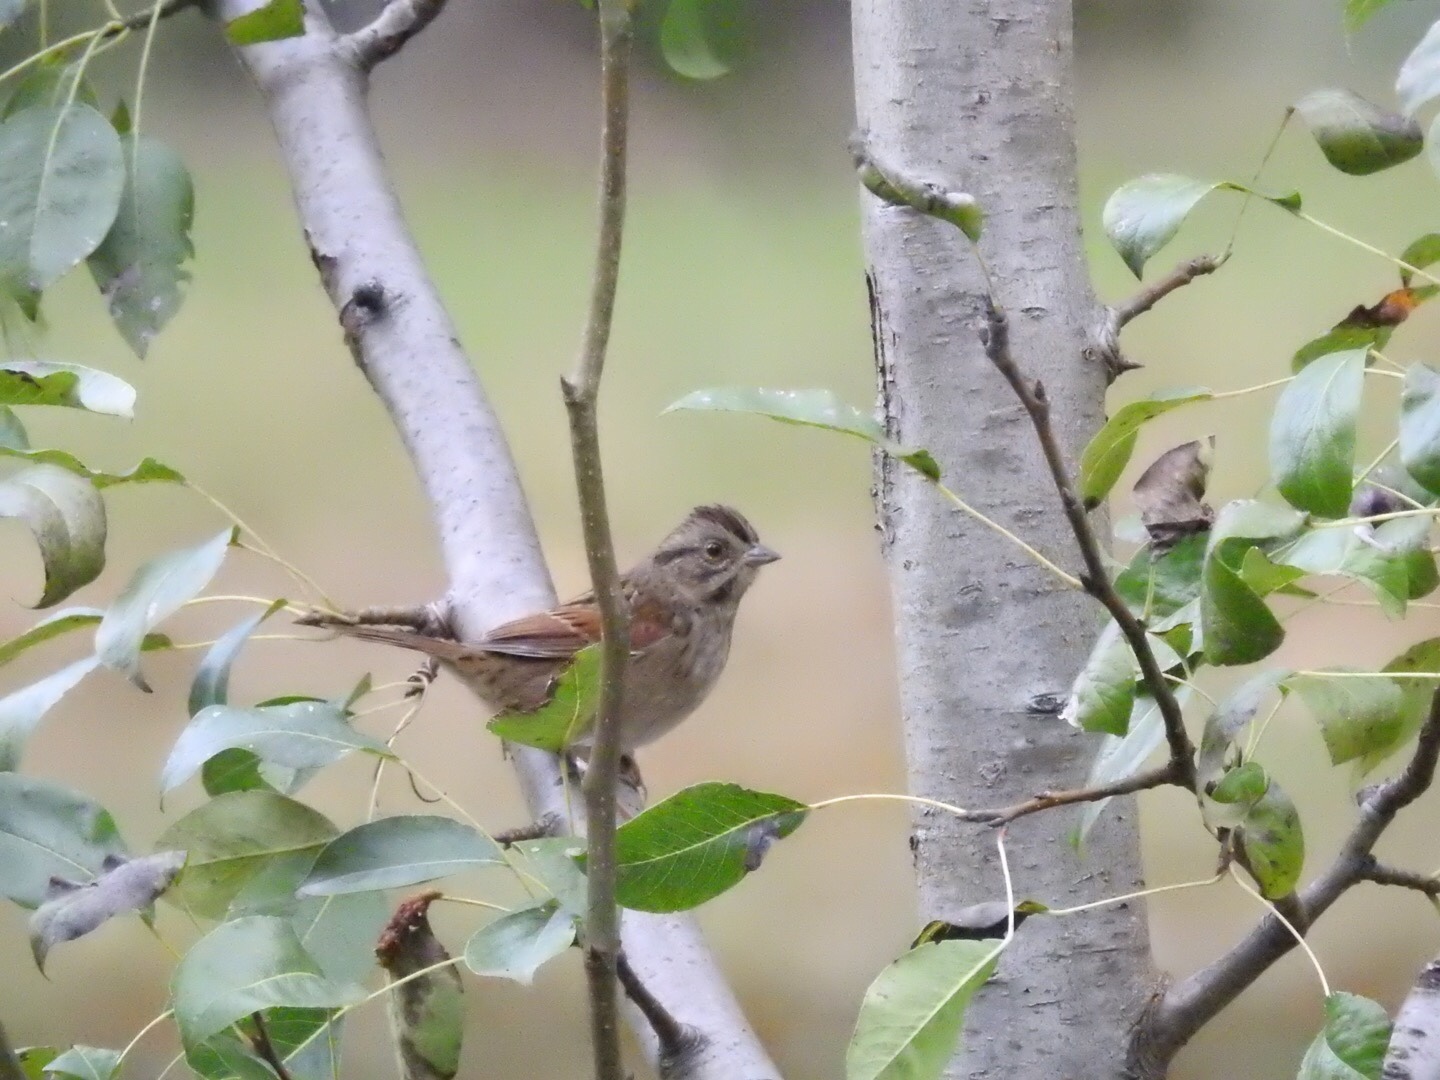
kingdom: Animalia
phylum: Chordata
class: Aves
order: Passeriformes
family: Passerellidae
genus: Melospiza
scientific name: Melospiza georgiana
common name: Swamp sparrow
